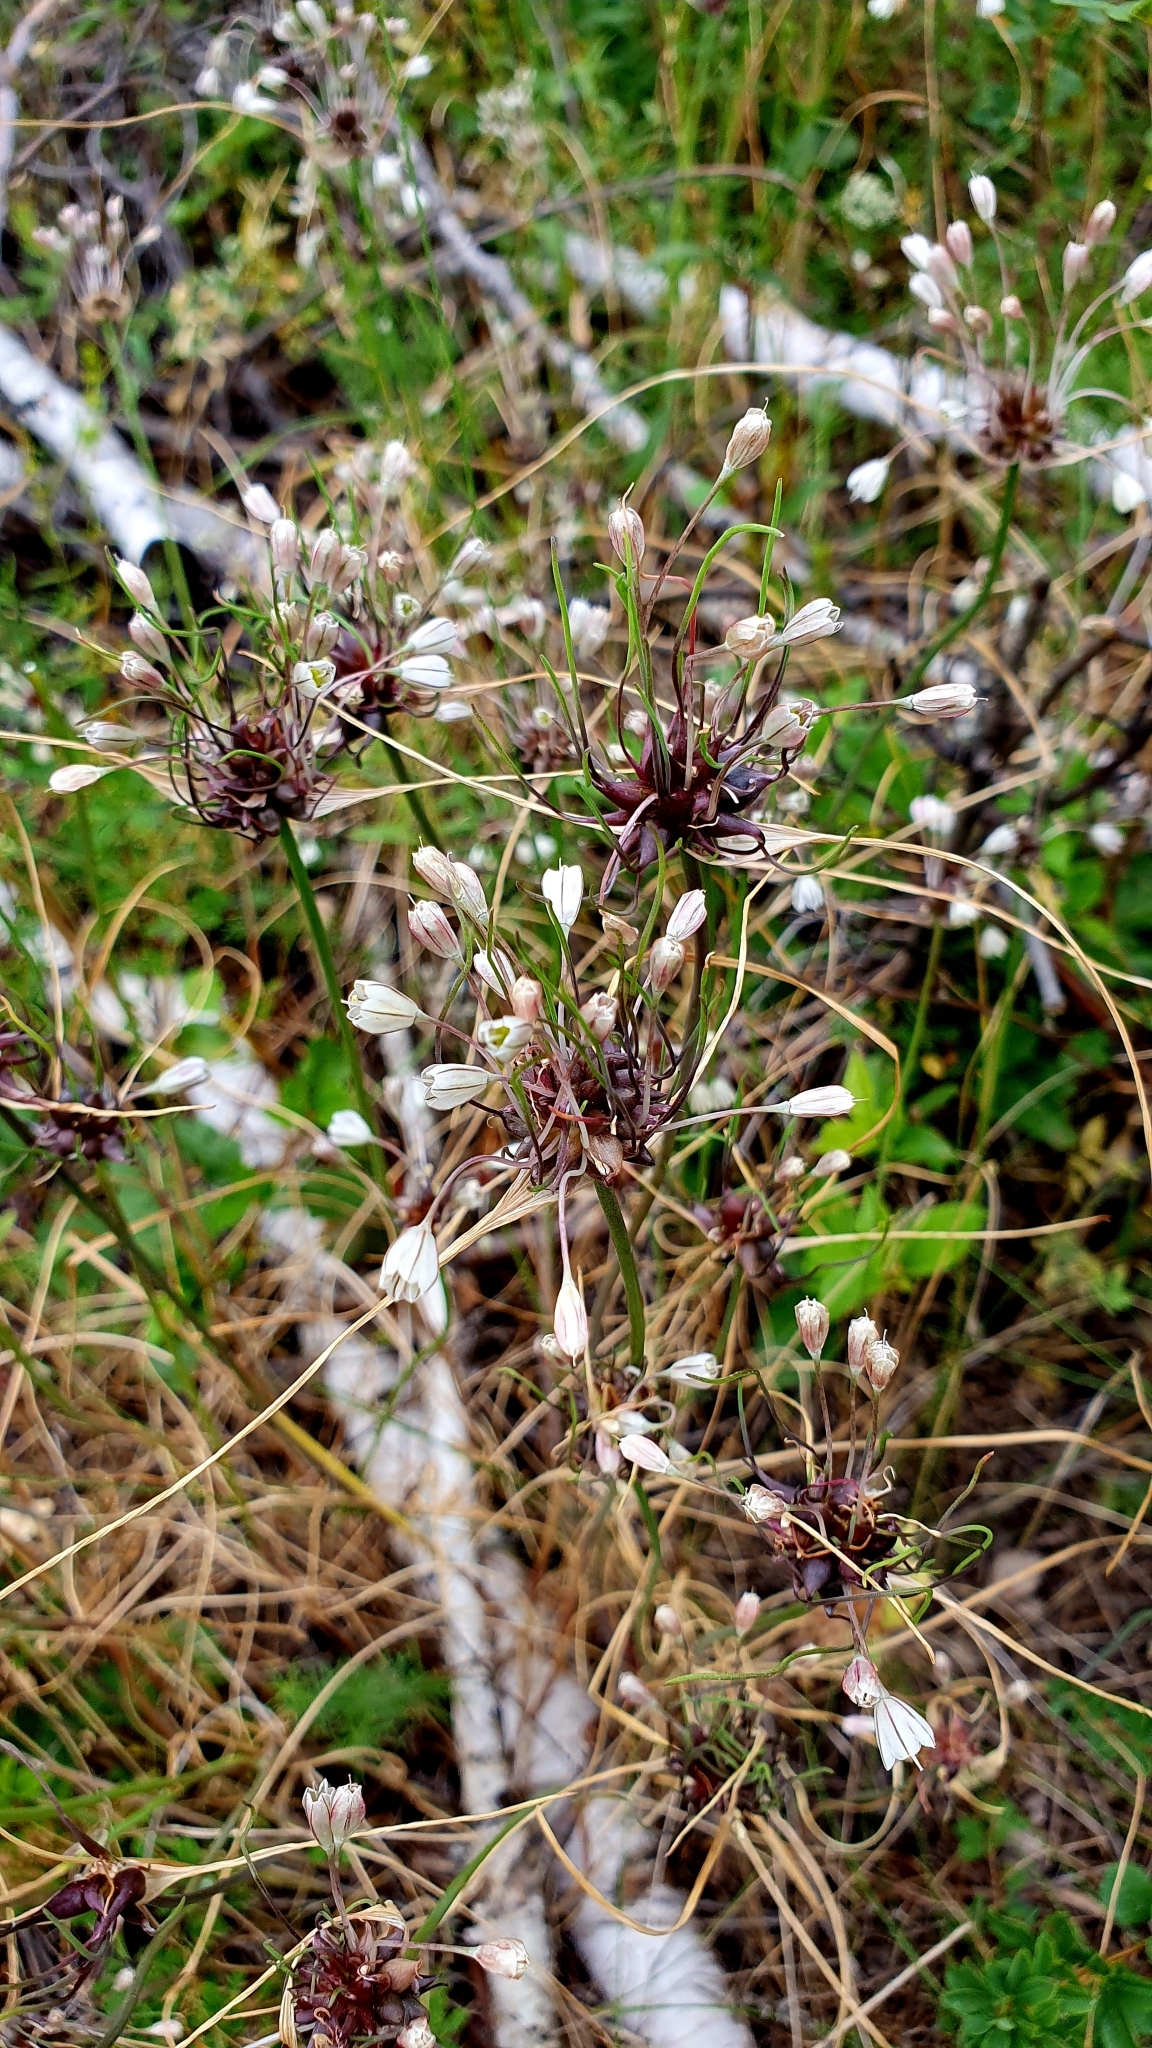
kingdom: Plantae
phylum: Tracheophyta
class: Liliopsida
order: Asparagales
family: Amaryllidaceae
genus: Allium
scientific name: Allium oleraceum
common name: Field garlic
